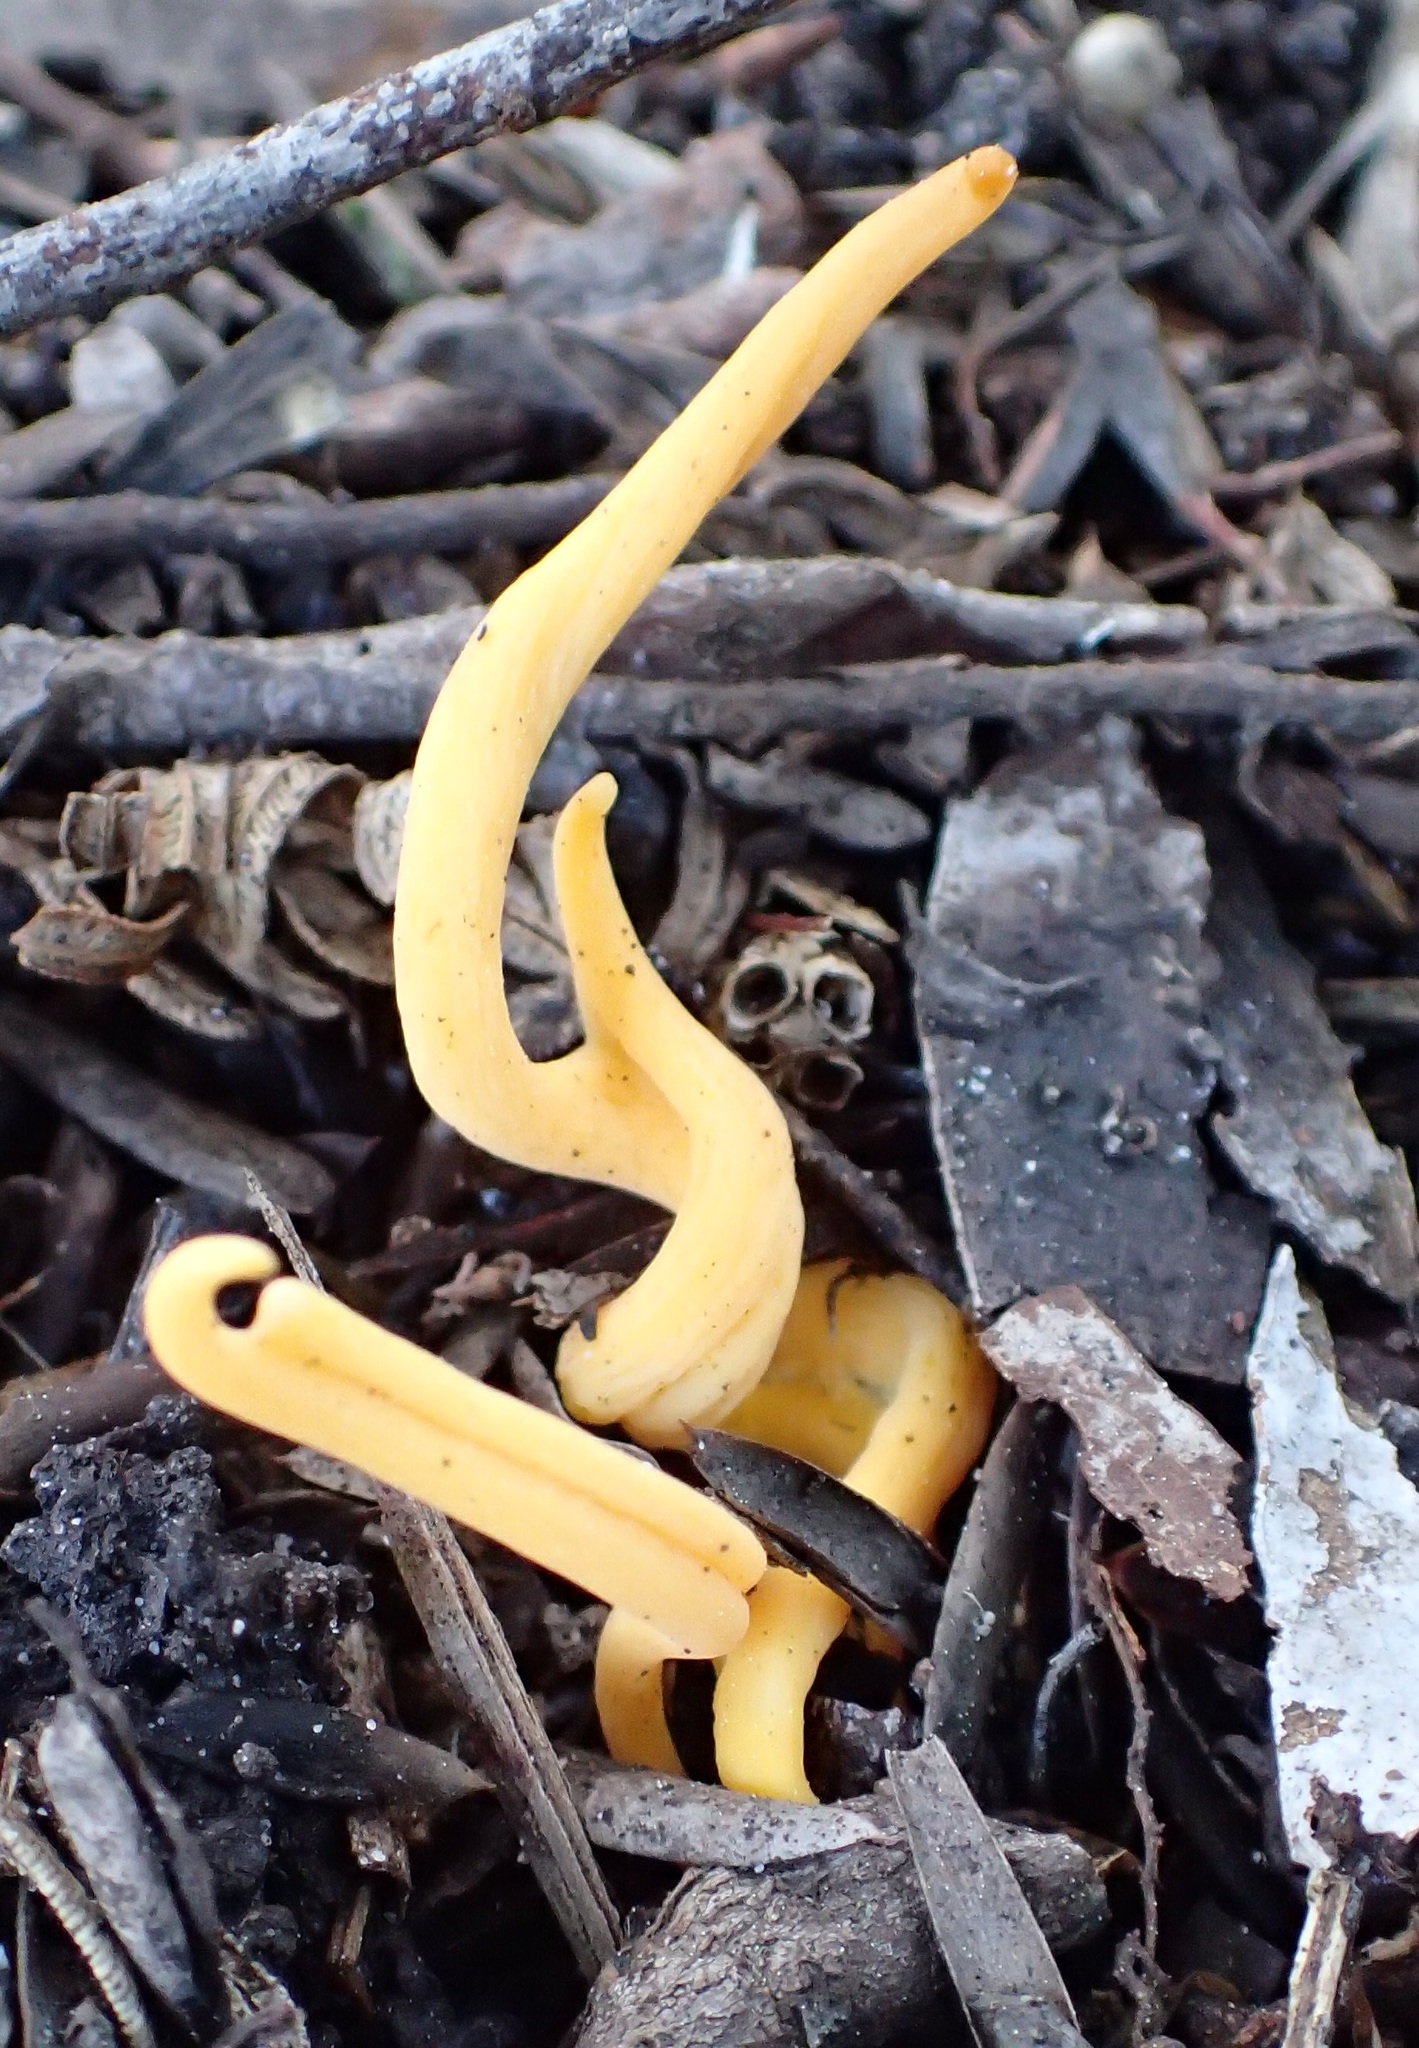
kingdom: Fungi
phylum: Basidiomycota
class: Agaricomycetes
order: Agaricales
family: Clavariaceae
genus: Clavulinopsis
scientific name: Clavulinopsis amoena
